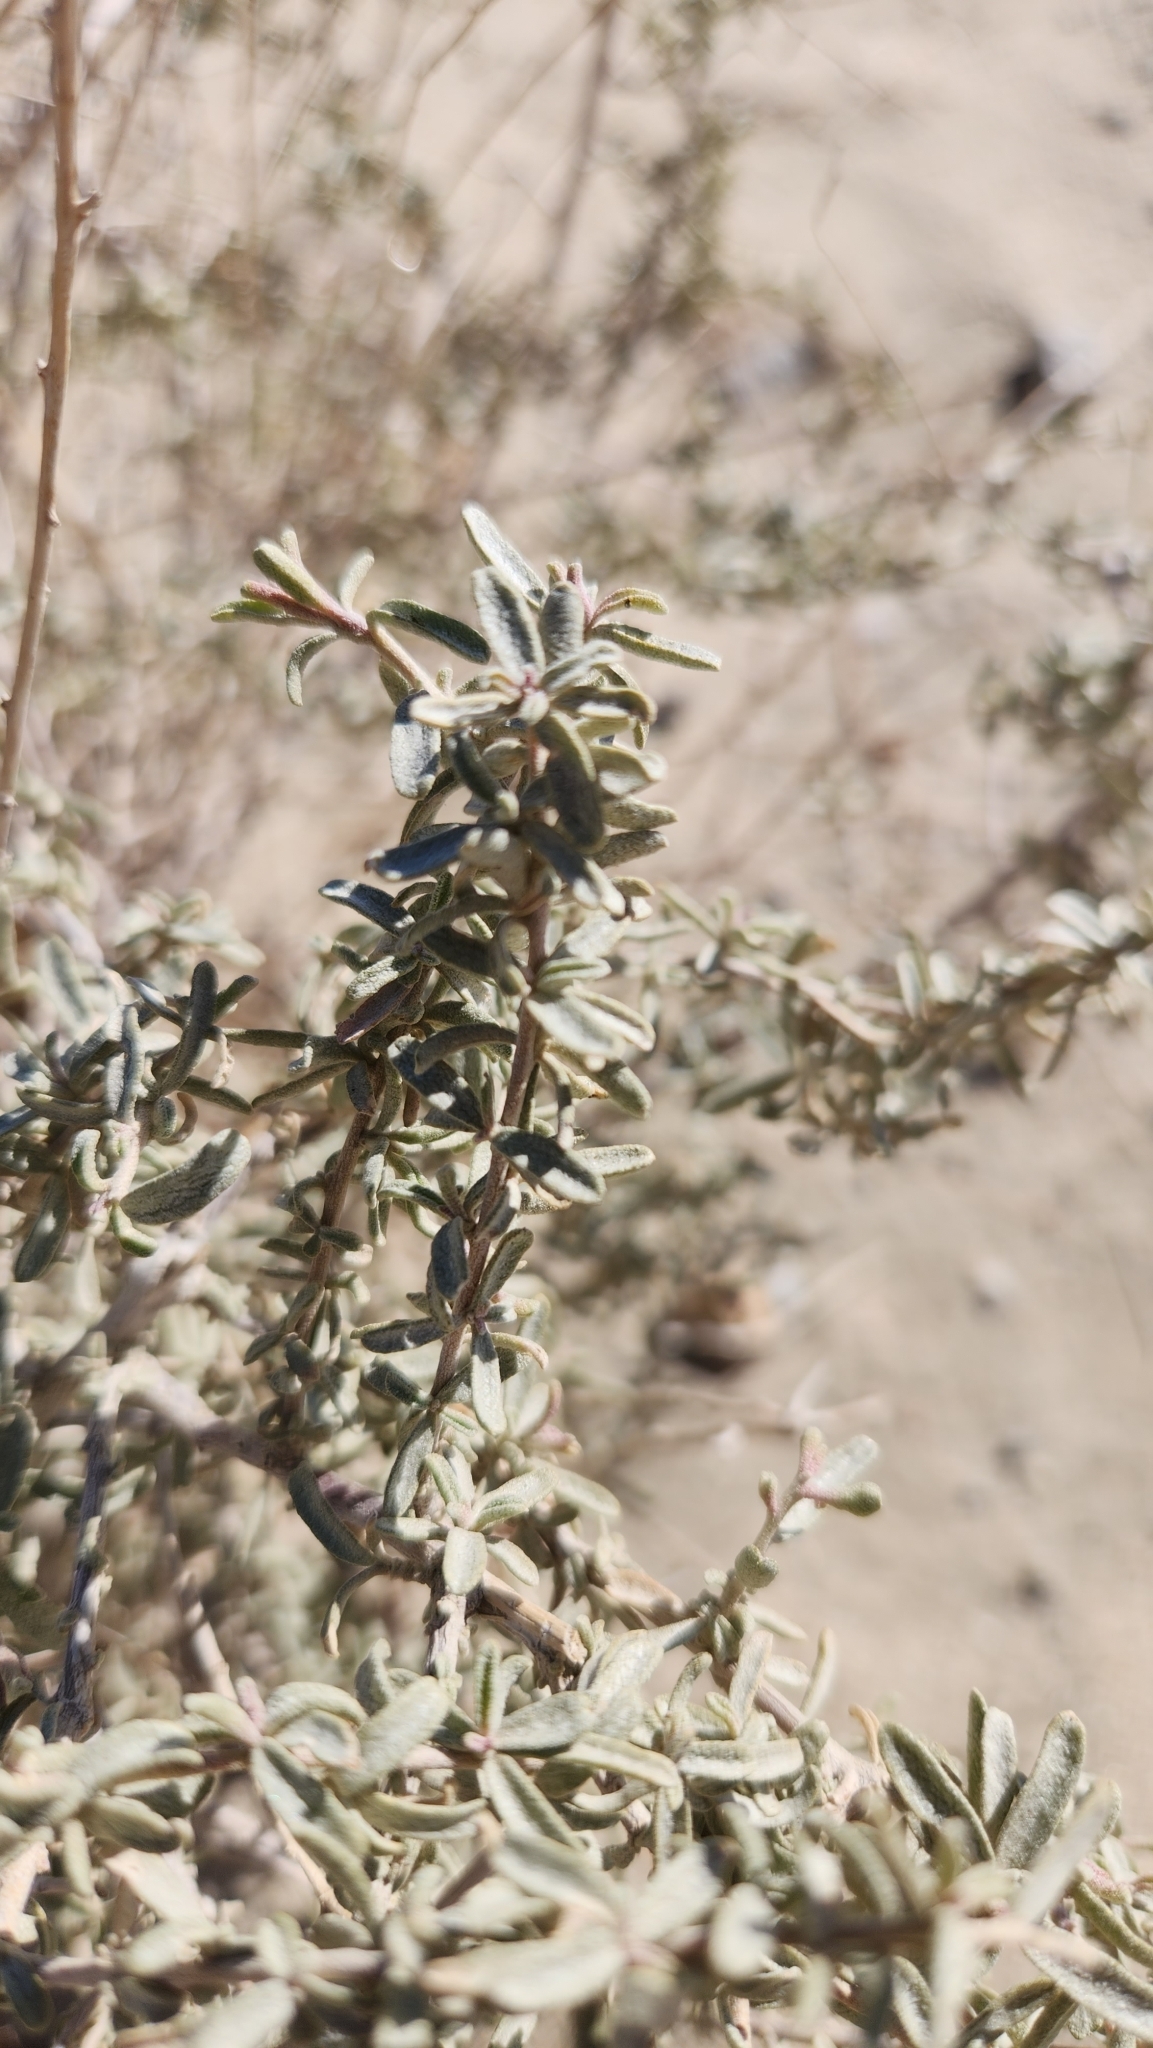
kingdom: Plantae
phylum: Tracheophyta
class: Magnoliopsida
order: Caryophyllales
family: Amaranthaceae
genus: Atriplex
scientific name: Atriplex canescens
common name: Four-wing saltbush
